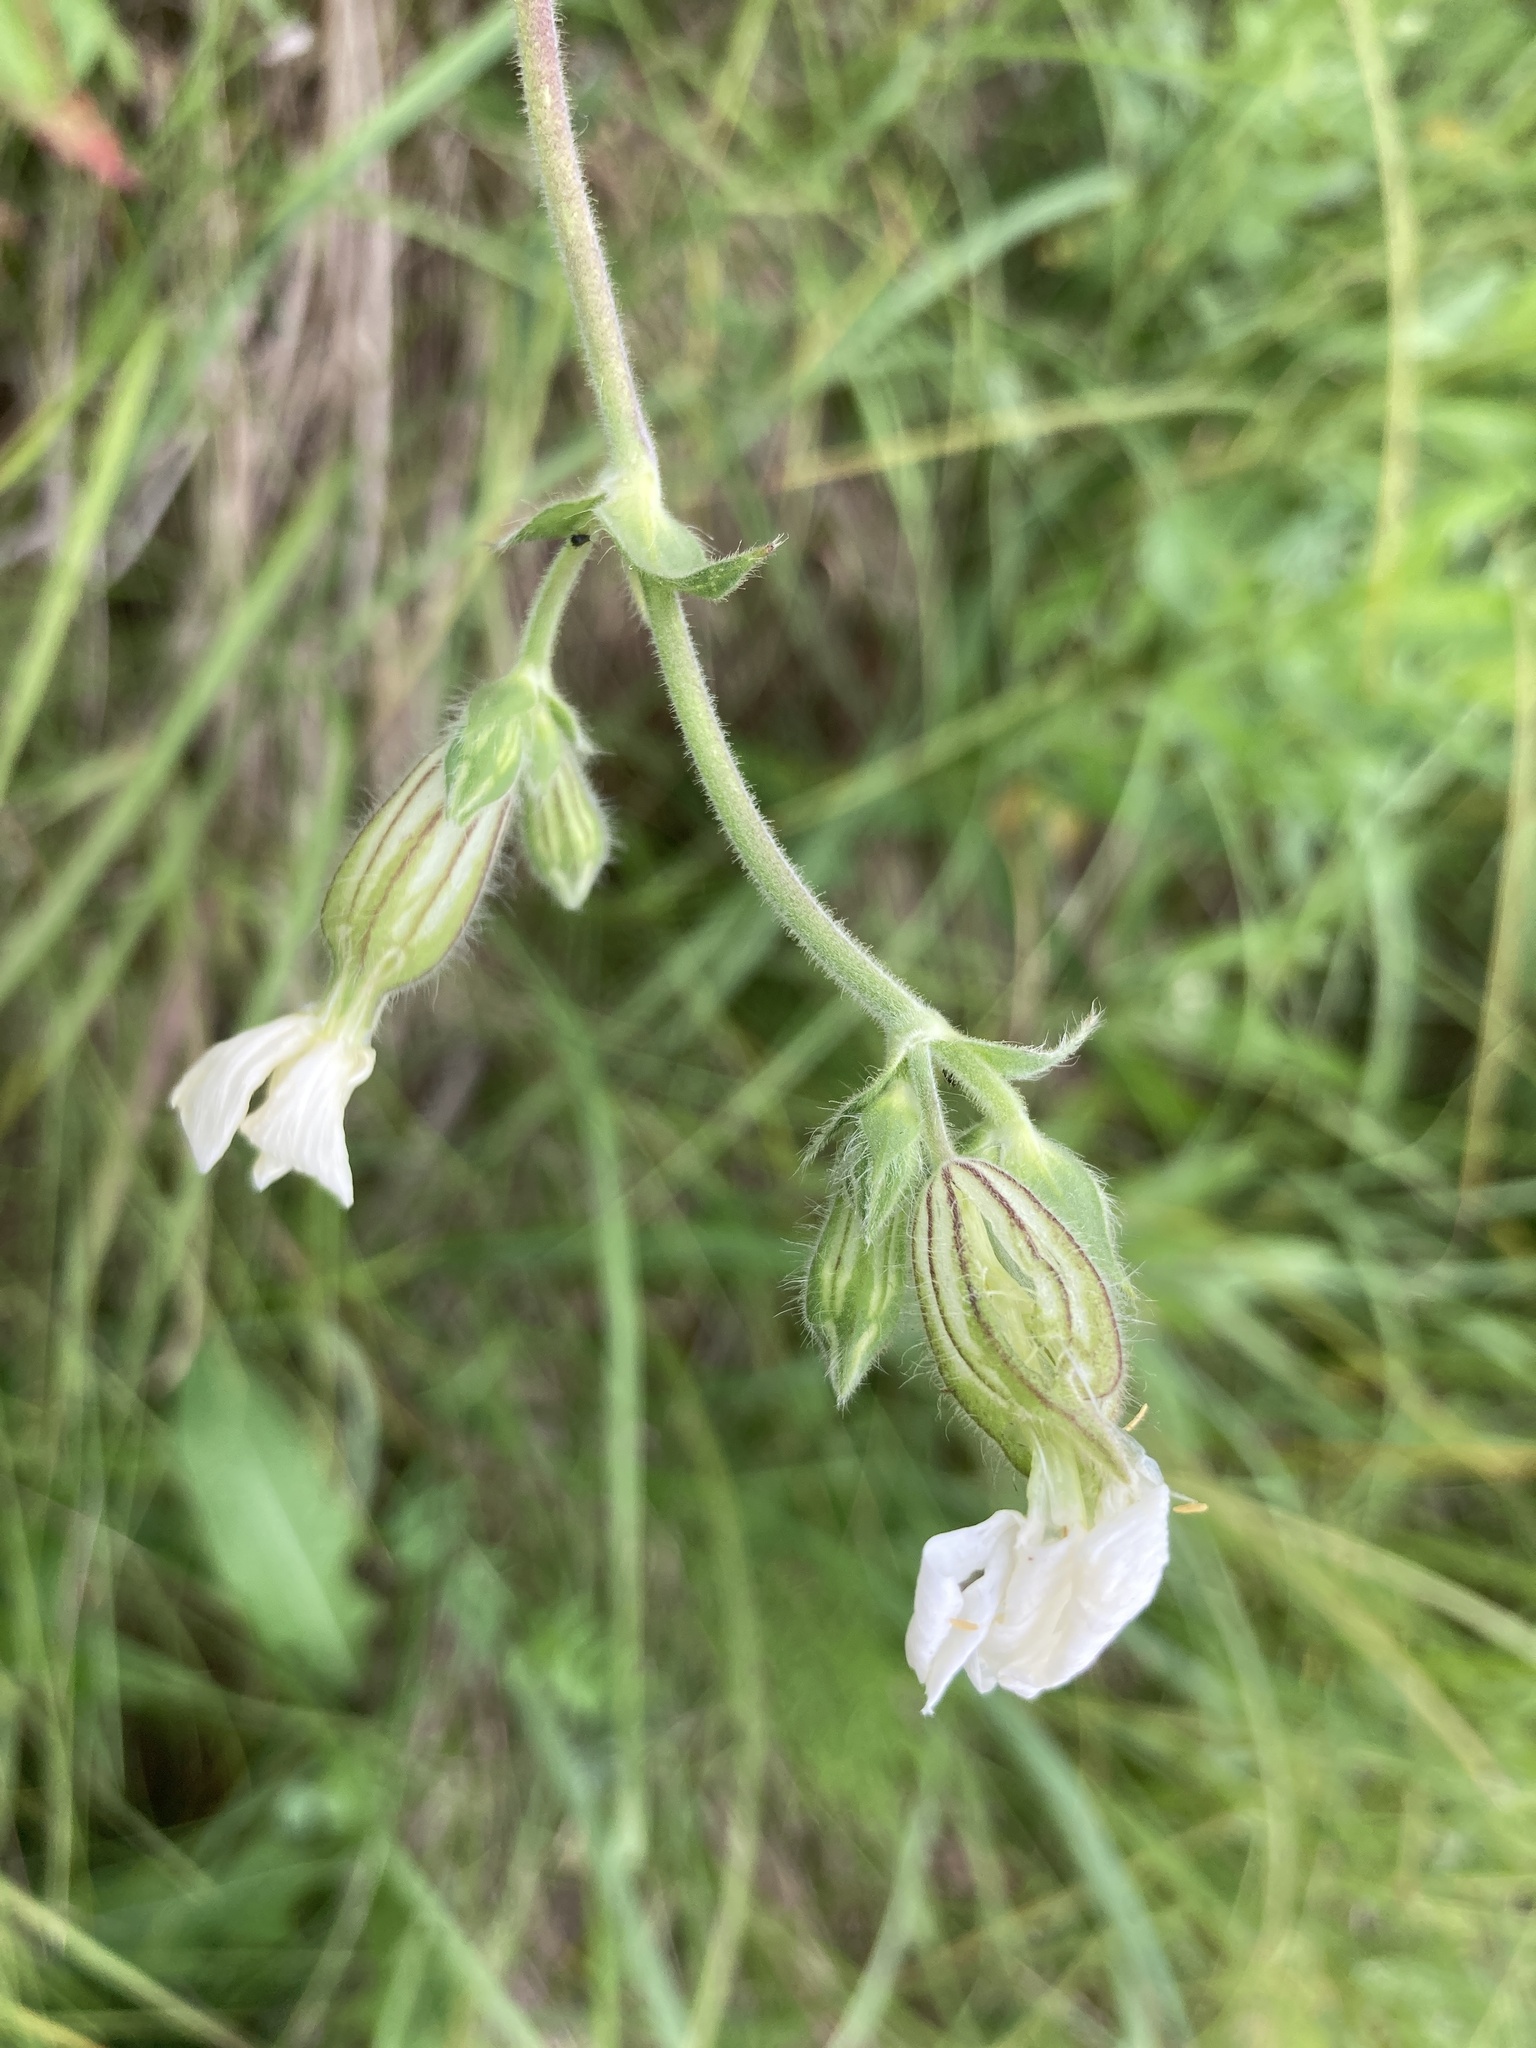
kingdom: Plantae
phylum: Tracheophyta
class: Magnoliopsida
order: Caryophyllales
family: Caryophyllaceae
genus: Silene
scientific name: Silene latifolia
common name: White campion
